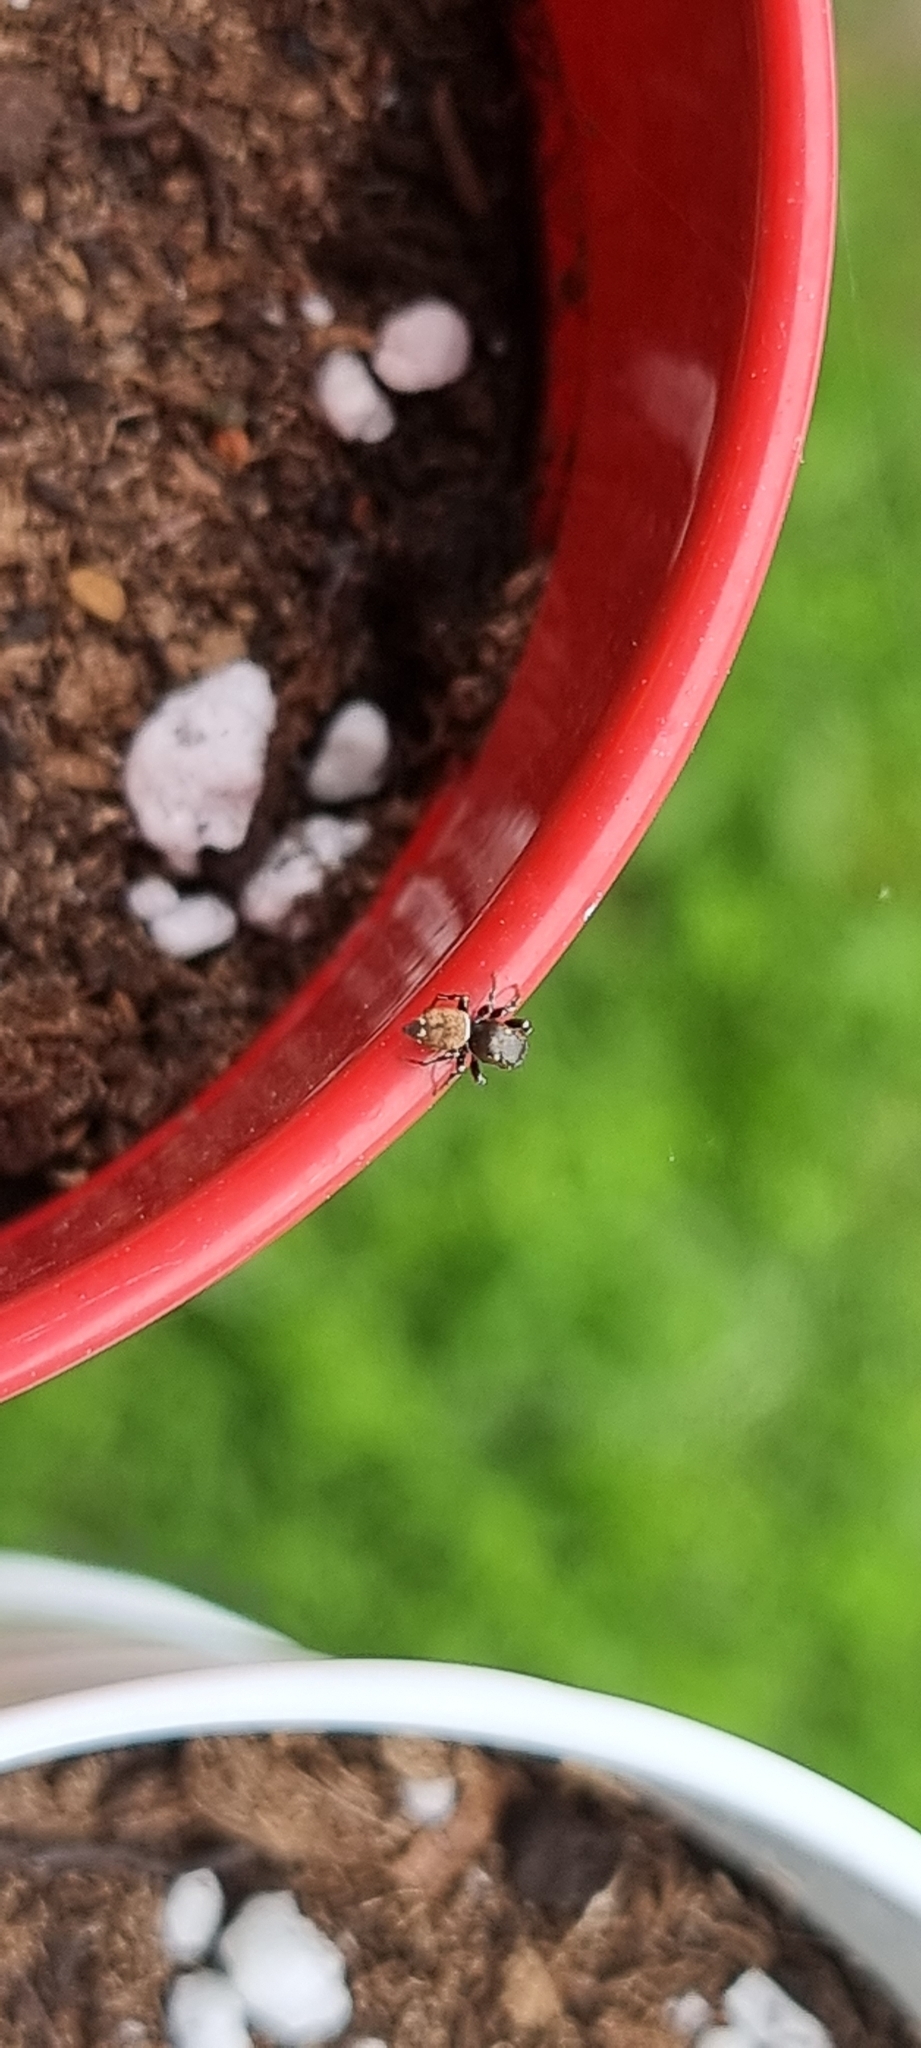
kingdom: Animalia
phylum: Arthropoda
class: Arachnida
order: Araneae
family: Salticidae
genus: Heliophanus
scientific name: Heliophanus tribulosus
